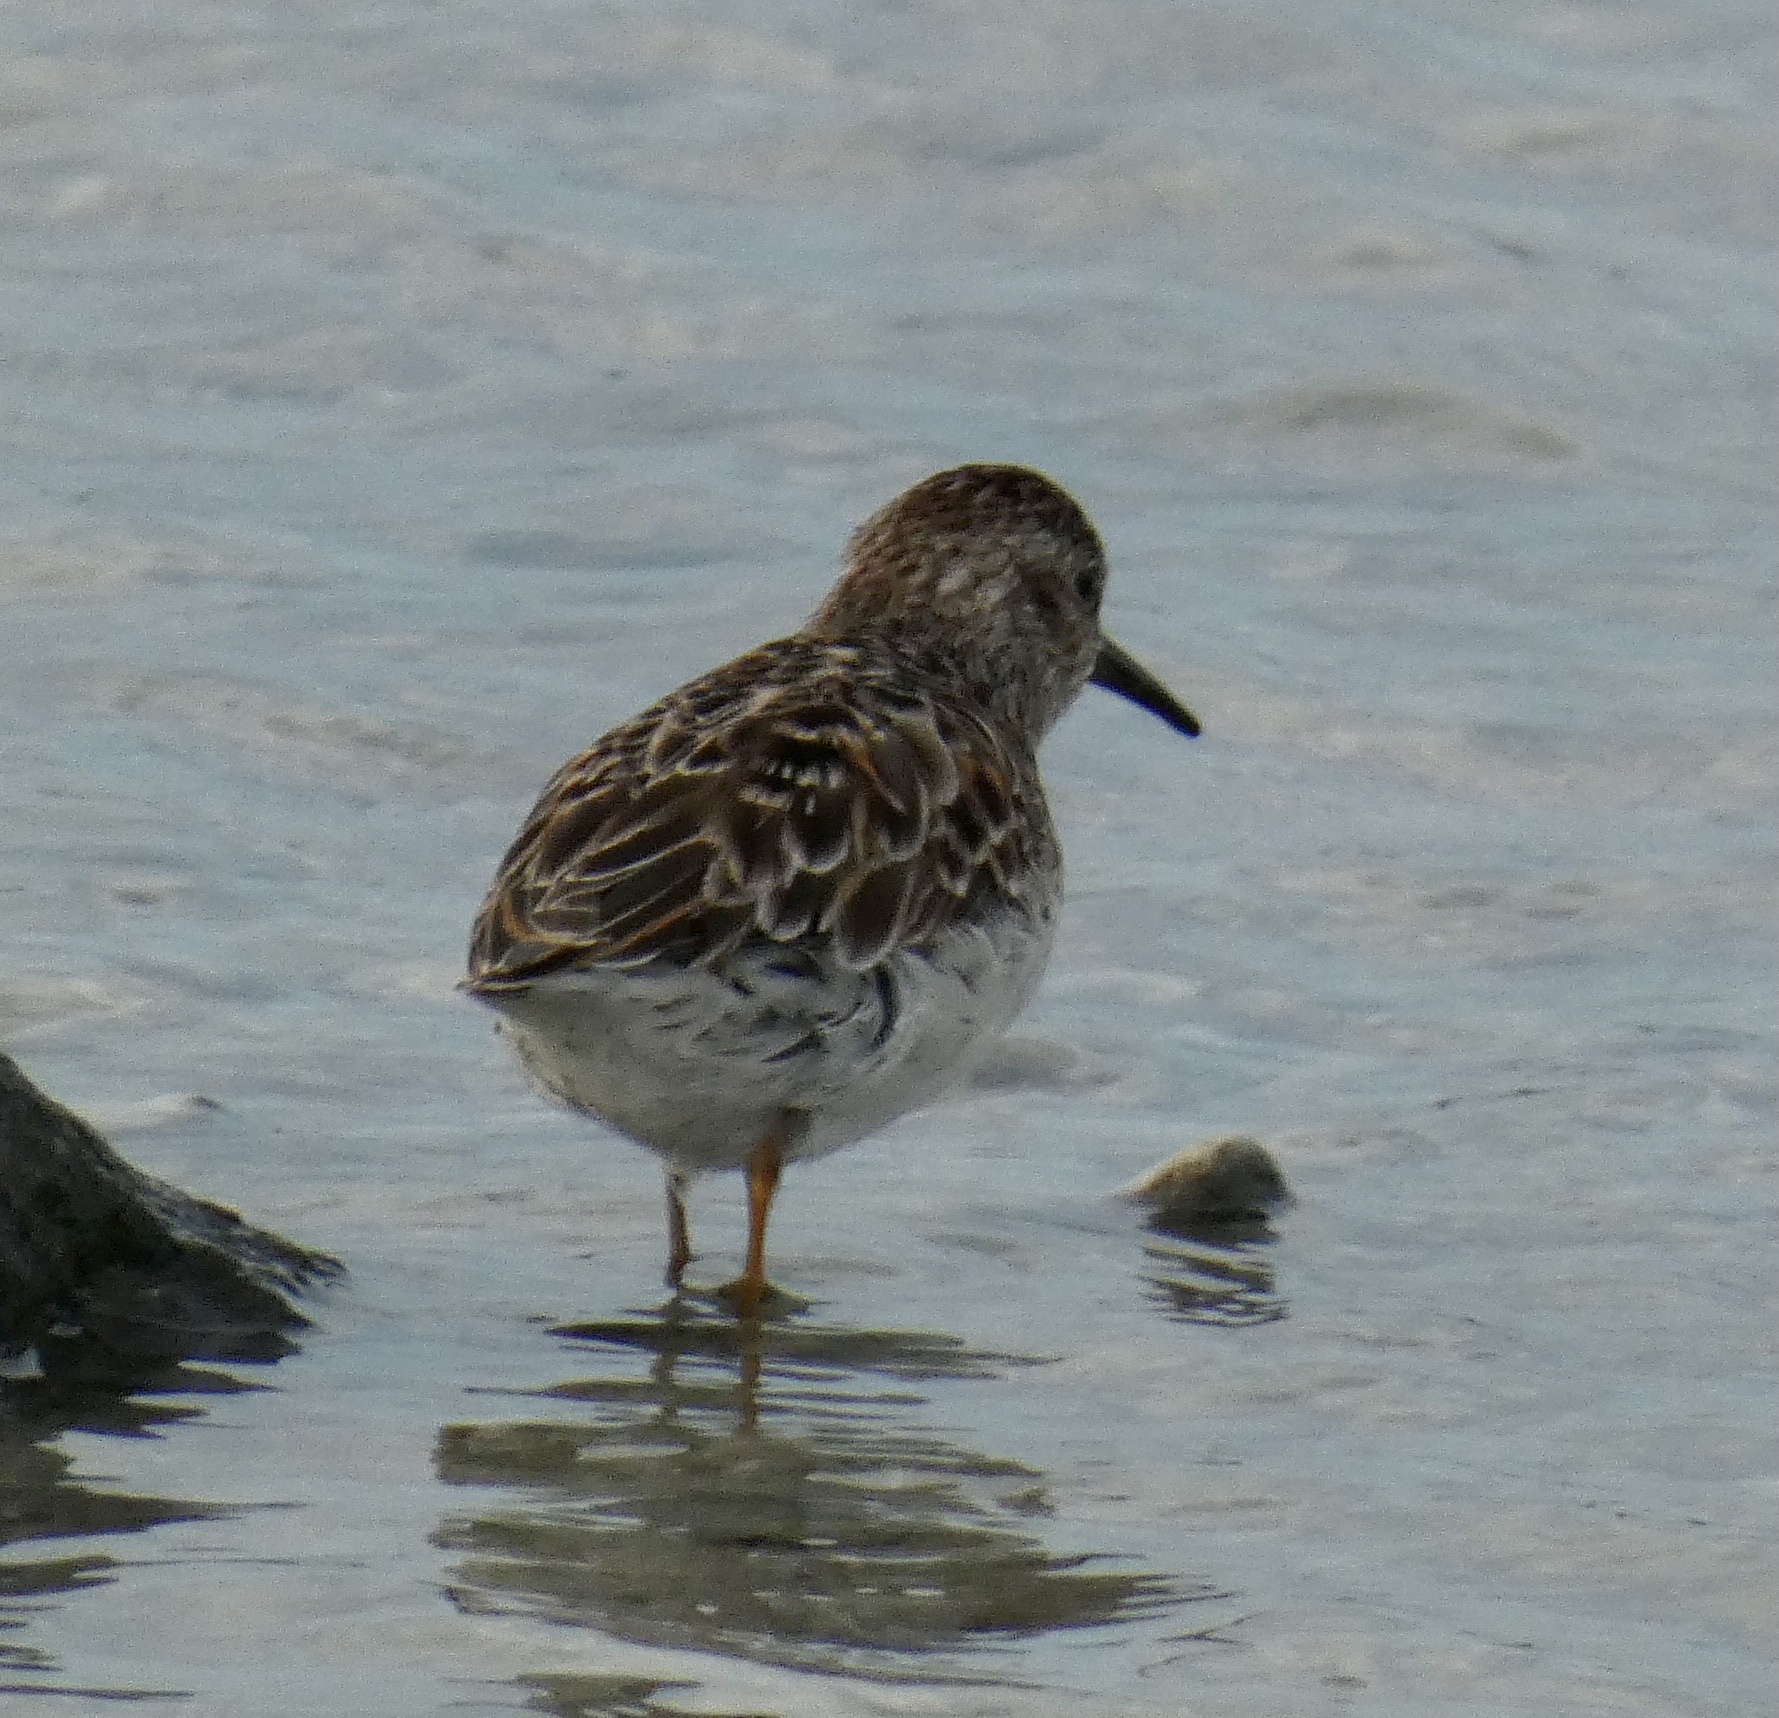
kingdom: Animalia
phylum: Chordata
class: Aves
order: Charadriiformes
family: Scolopacidae
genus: Calidris
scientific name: Calidris minutilla
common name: Least sandpiper
